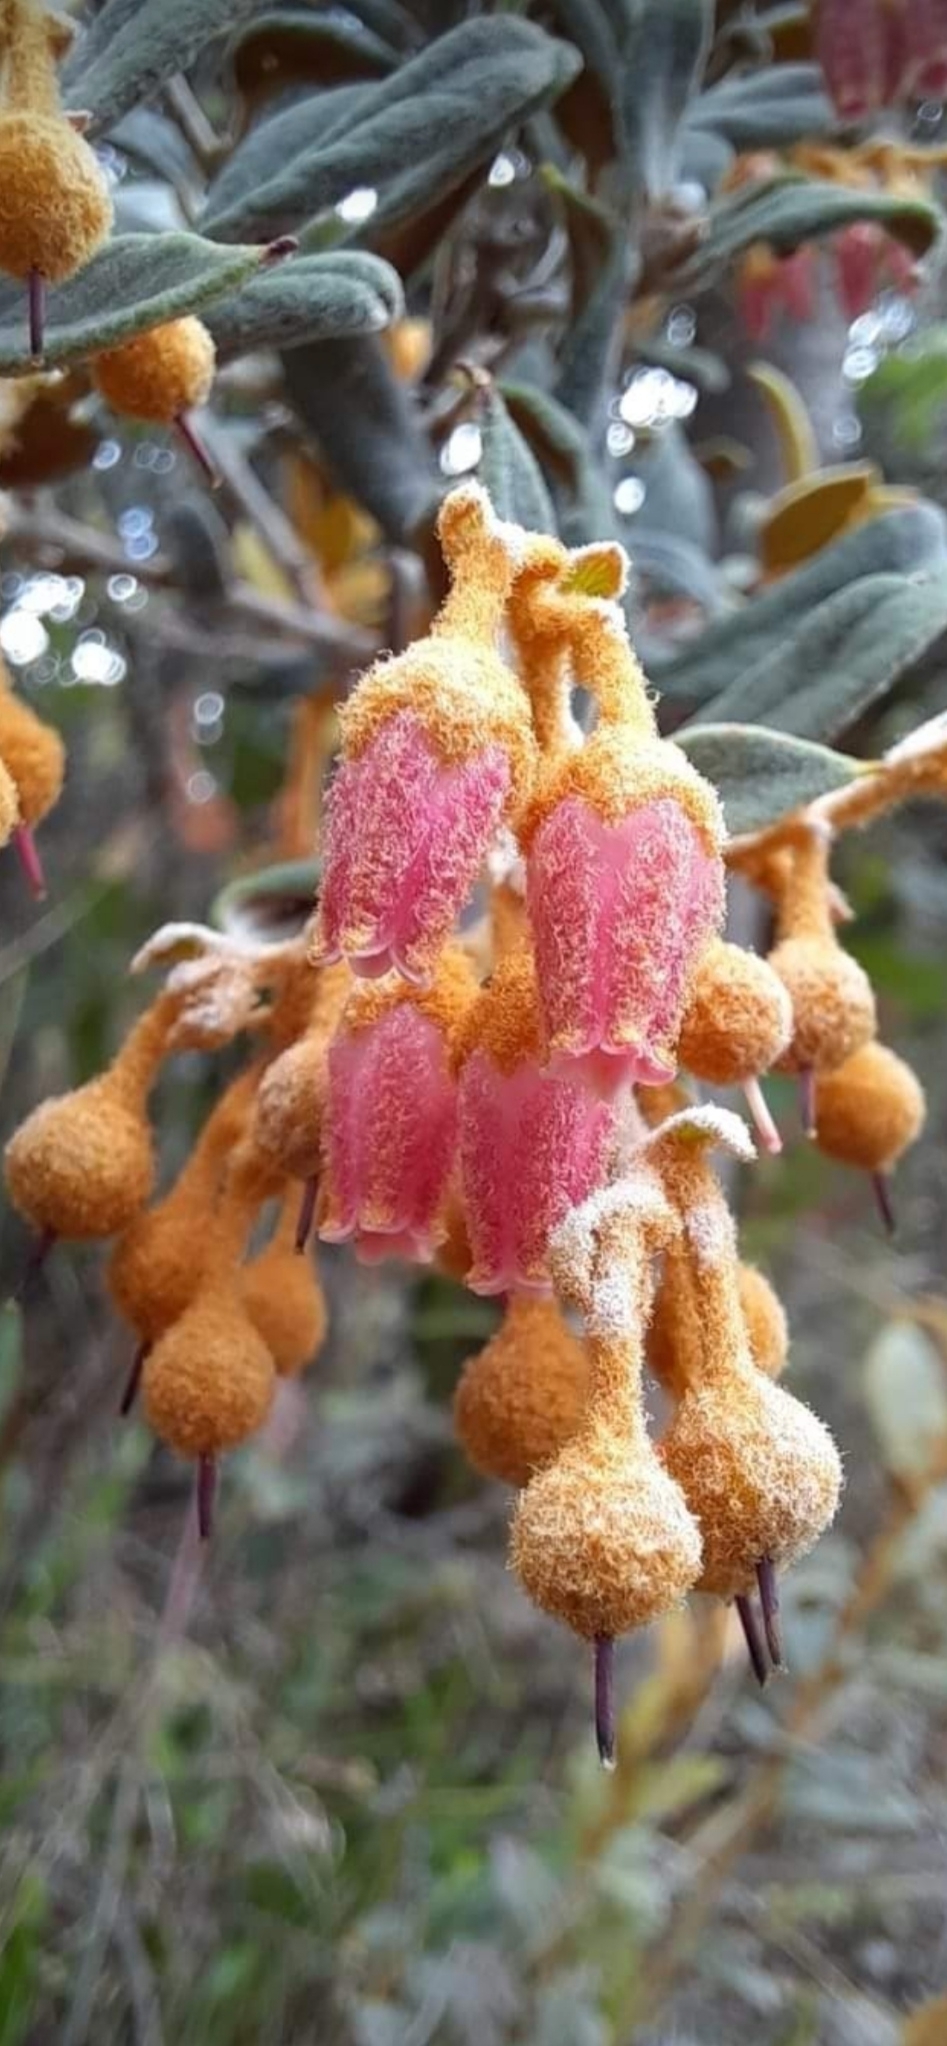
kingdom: Plantae
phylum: Tracheophyta
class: Magnoliopsida
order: Ericales
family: Ericaceae
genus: Gaultheria
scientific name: Gaultheria tomentosa
